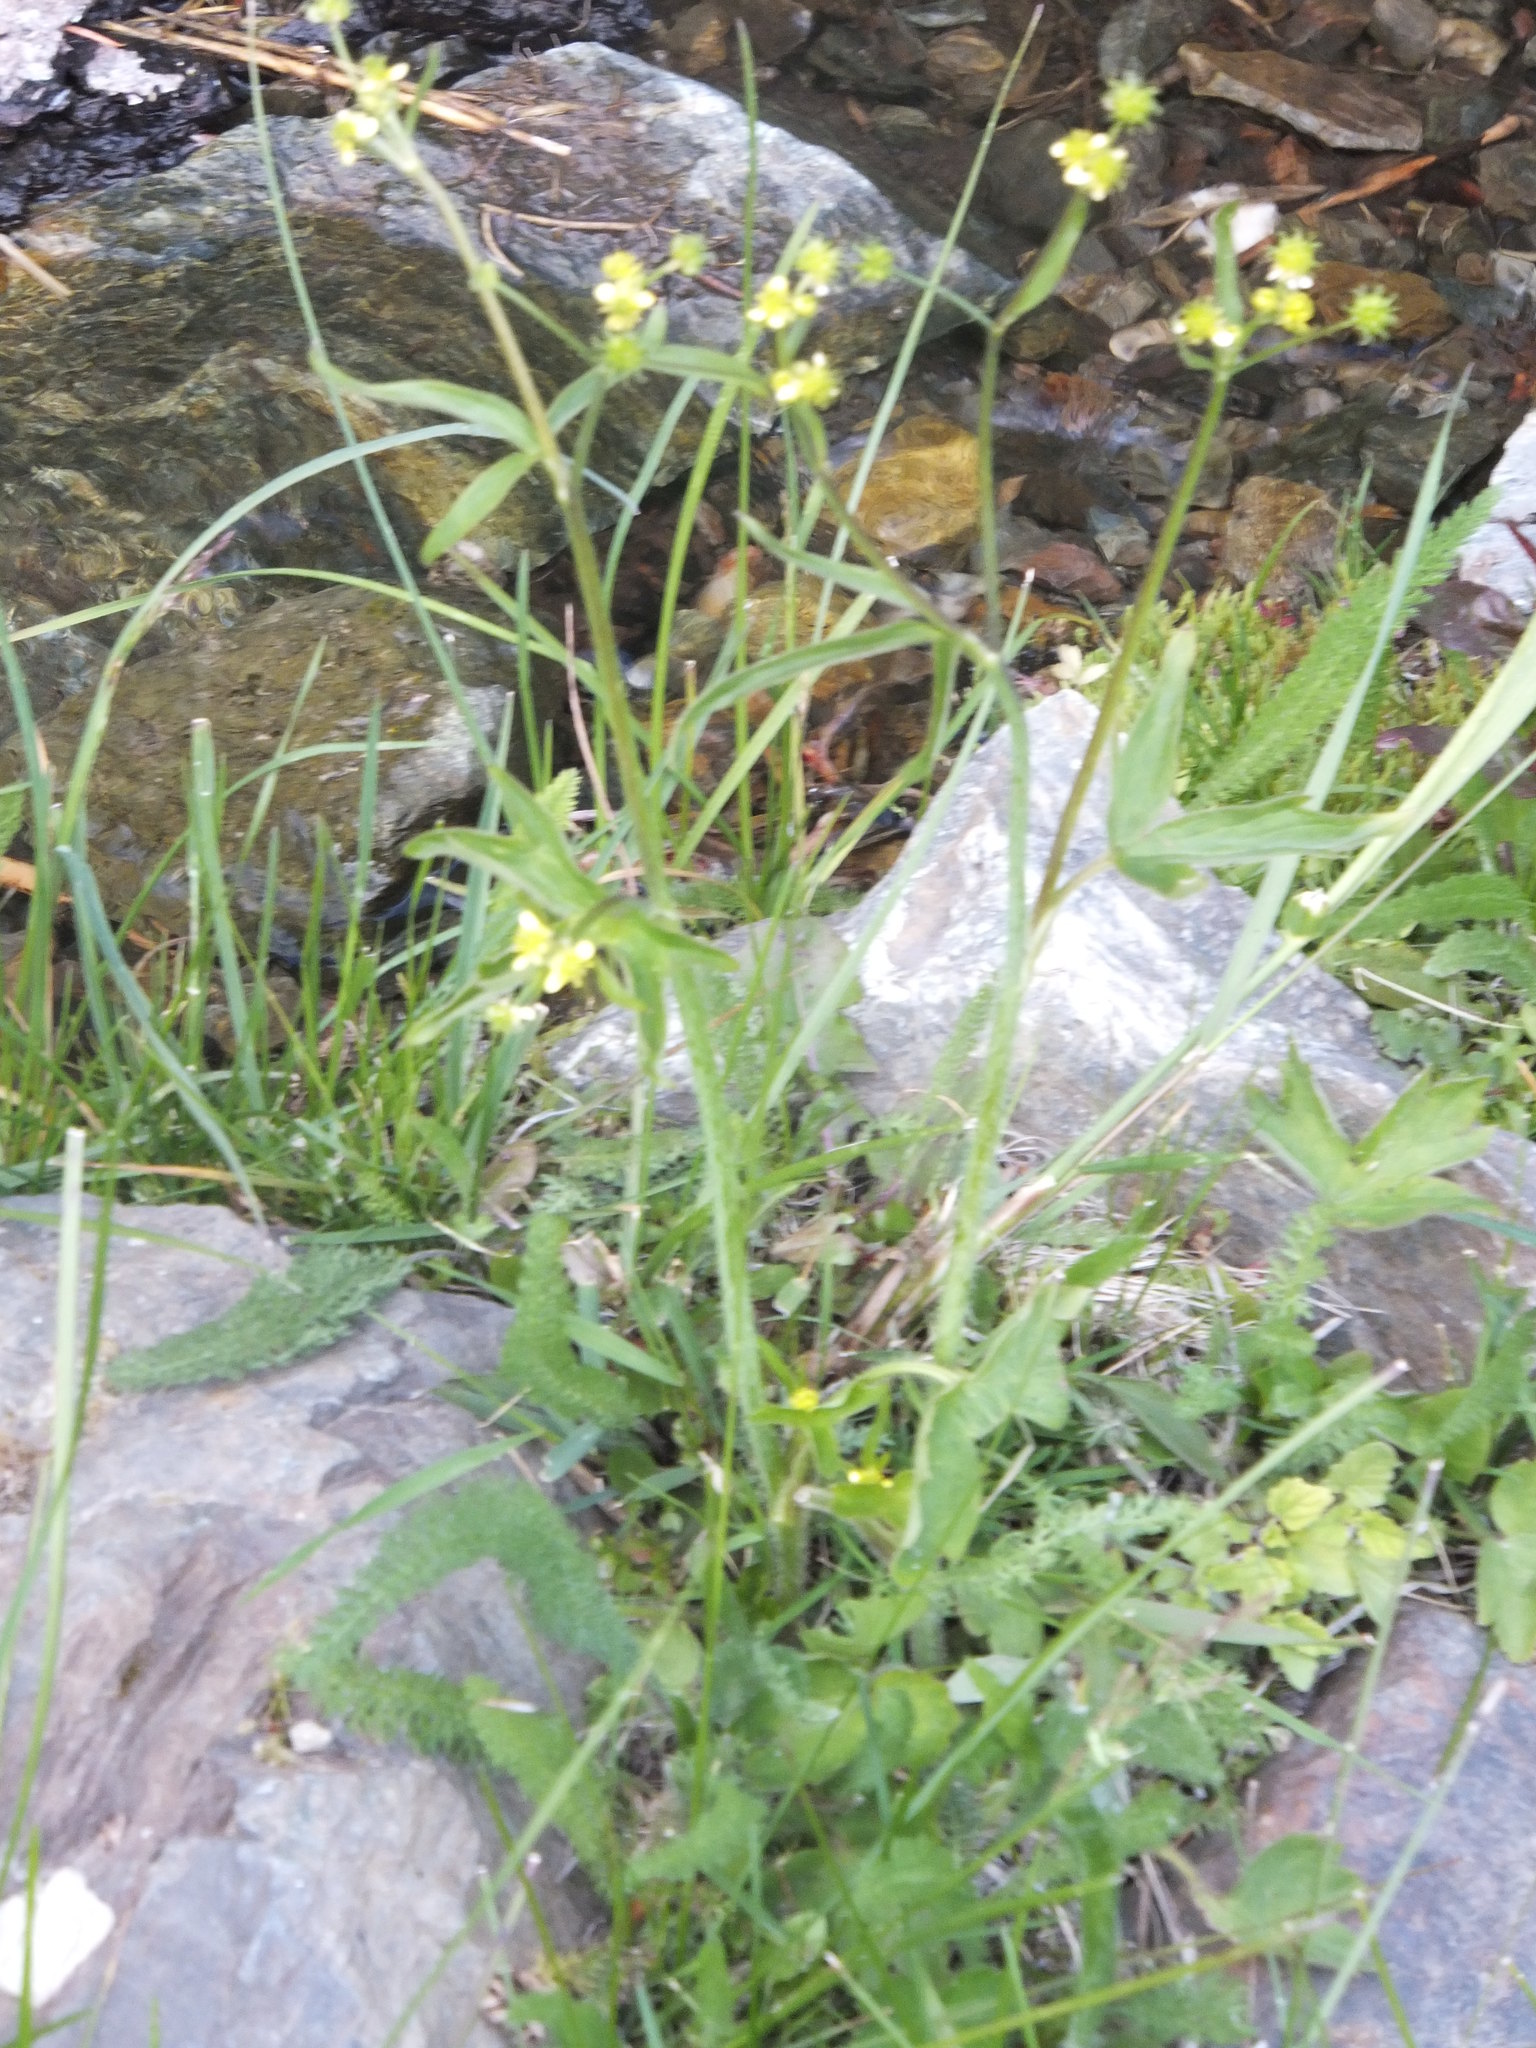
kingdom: Plantae
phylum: Tracheophyta
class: Magnoliopsida
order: Ranunculales
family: Ranunculaceae
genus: Ranunculus
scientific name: Ranunculus uncinatus
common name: Little buttercup
